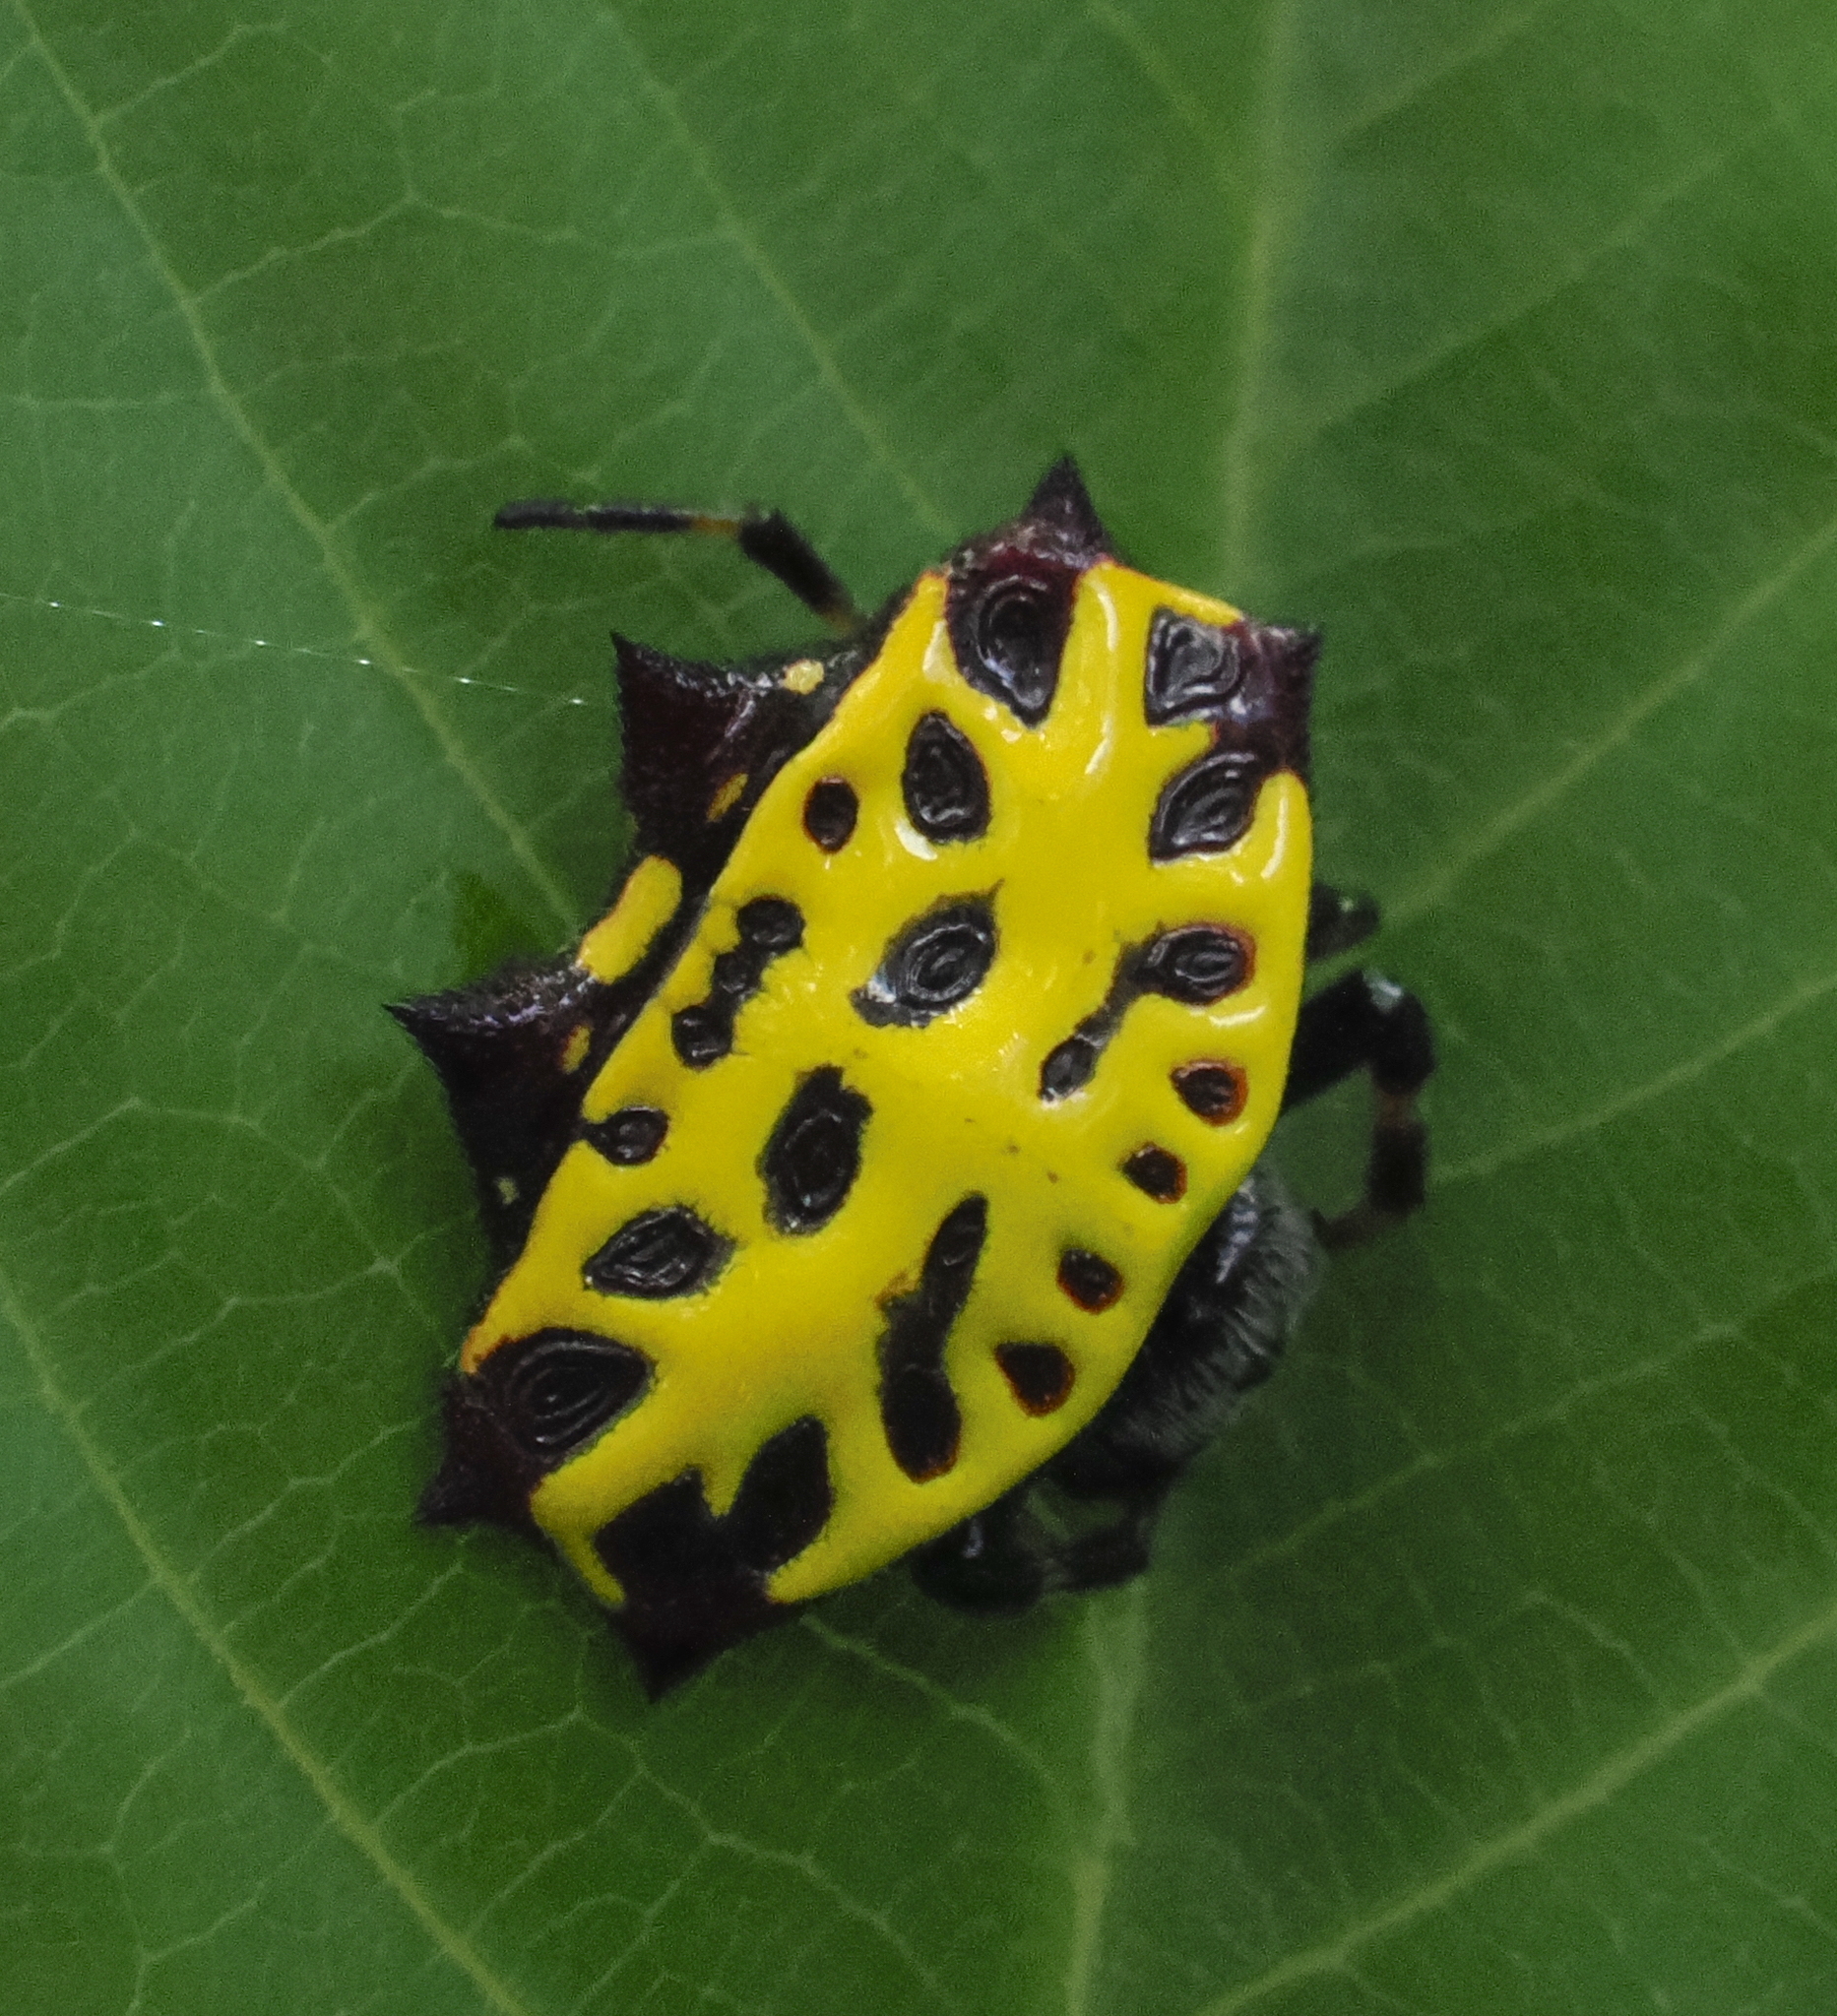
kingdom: Animalia
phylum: Arthropoda
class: Arachnida
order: Araneae
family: Araneidae
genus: Gasteracantha
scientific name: Gasteracantha rubrospinis
